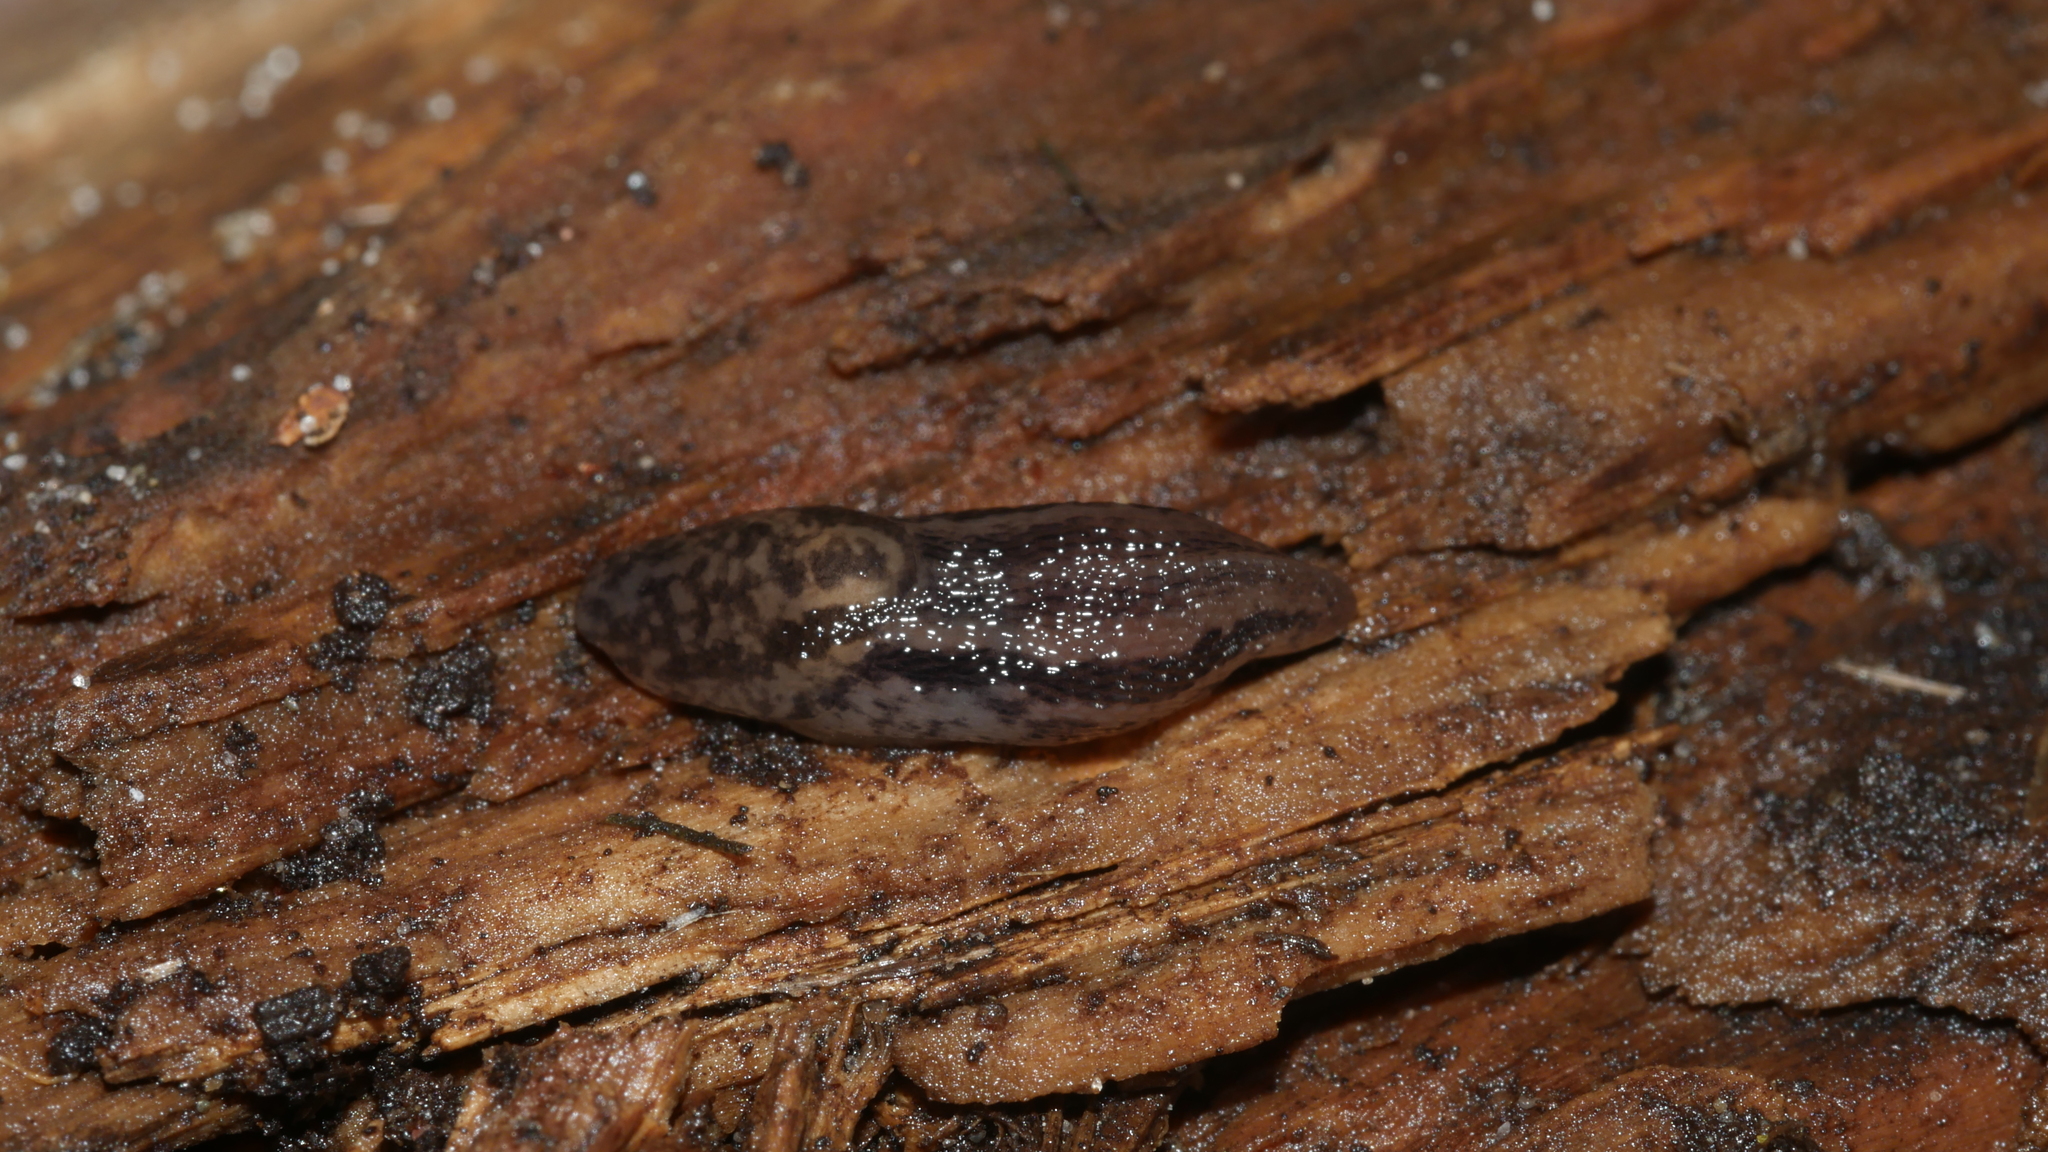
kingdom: Animalia
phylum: Mollusca
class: Gastropoda
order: Stylommatophora
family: Limacidae
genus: Limax
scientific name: Limax maximus
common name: Great grey slug
